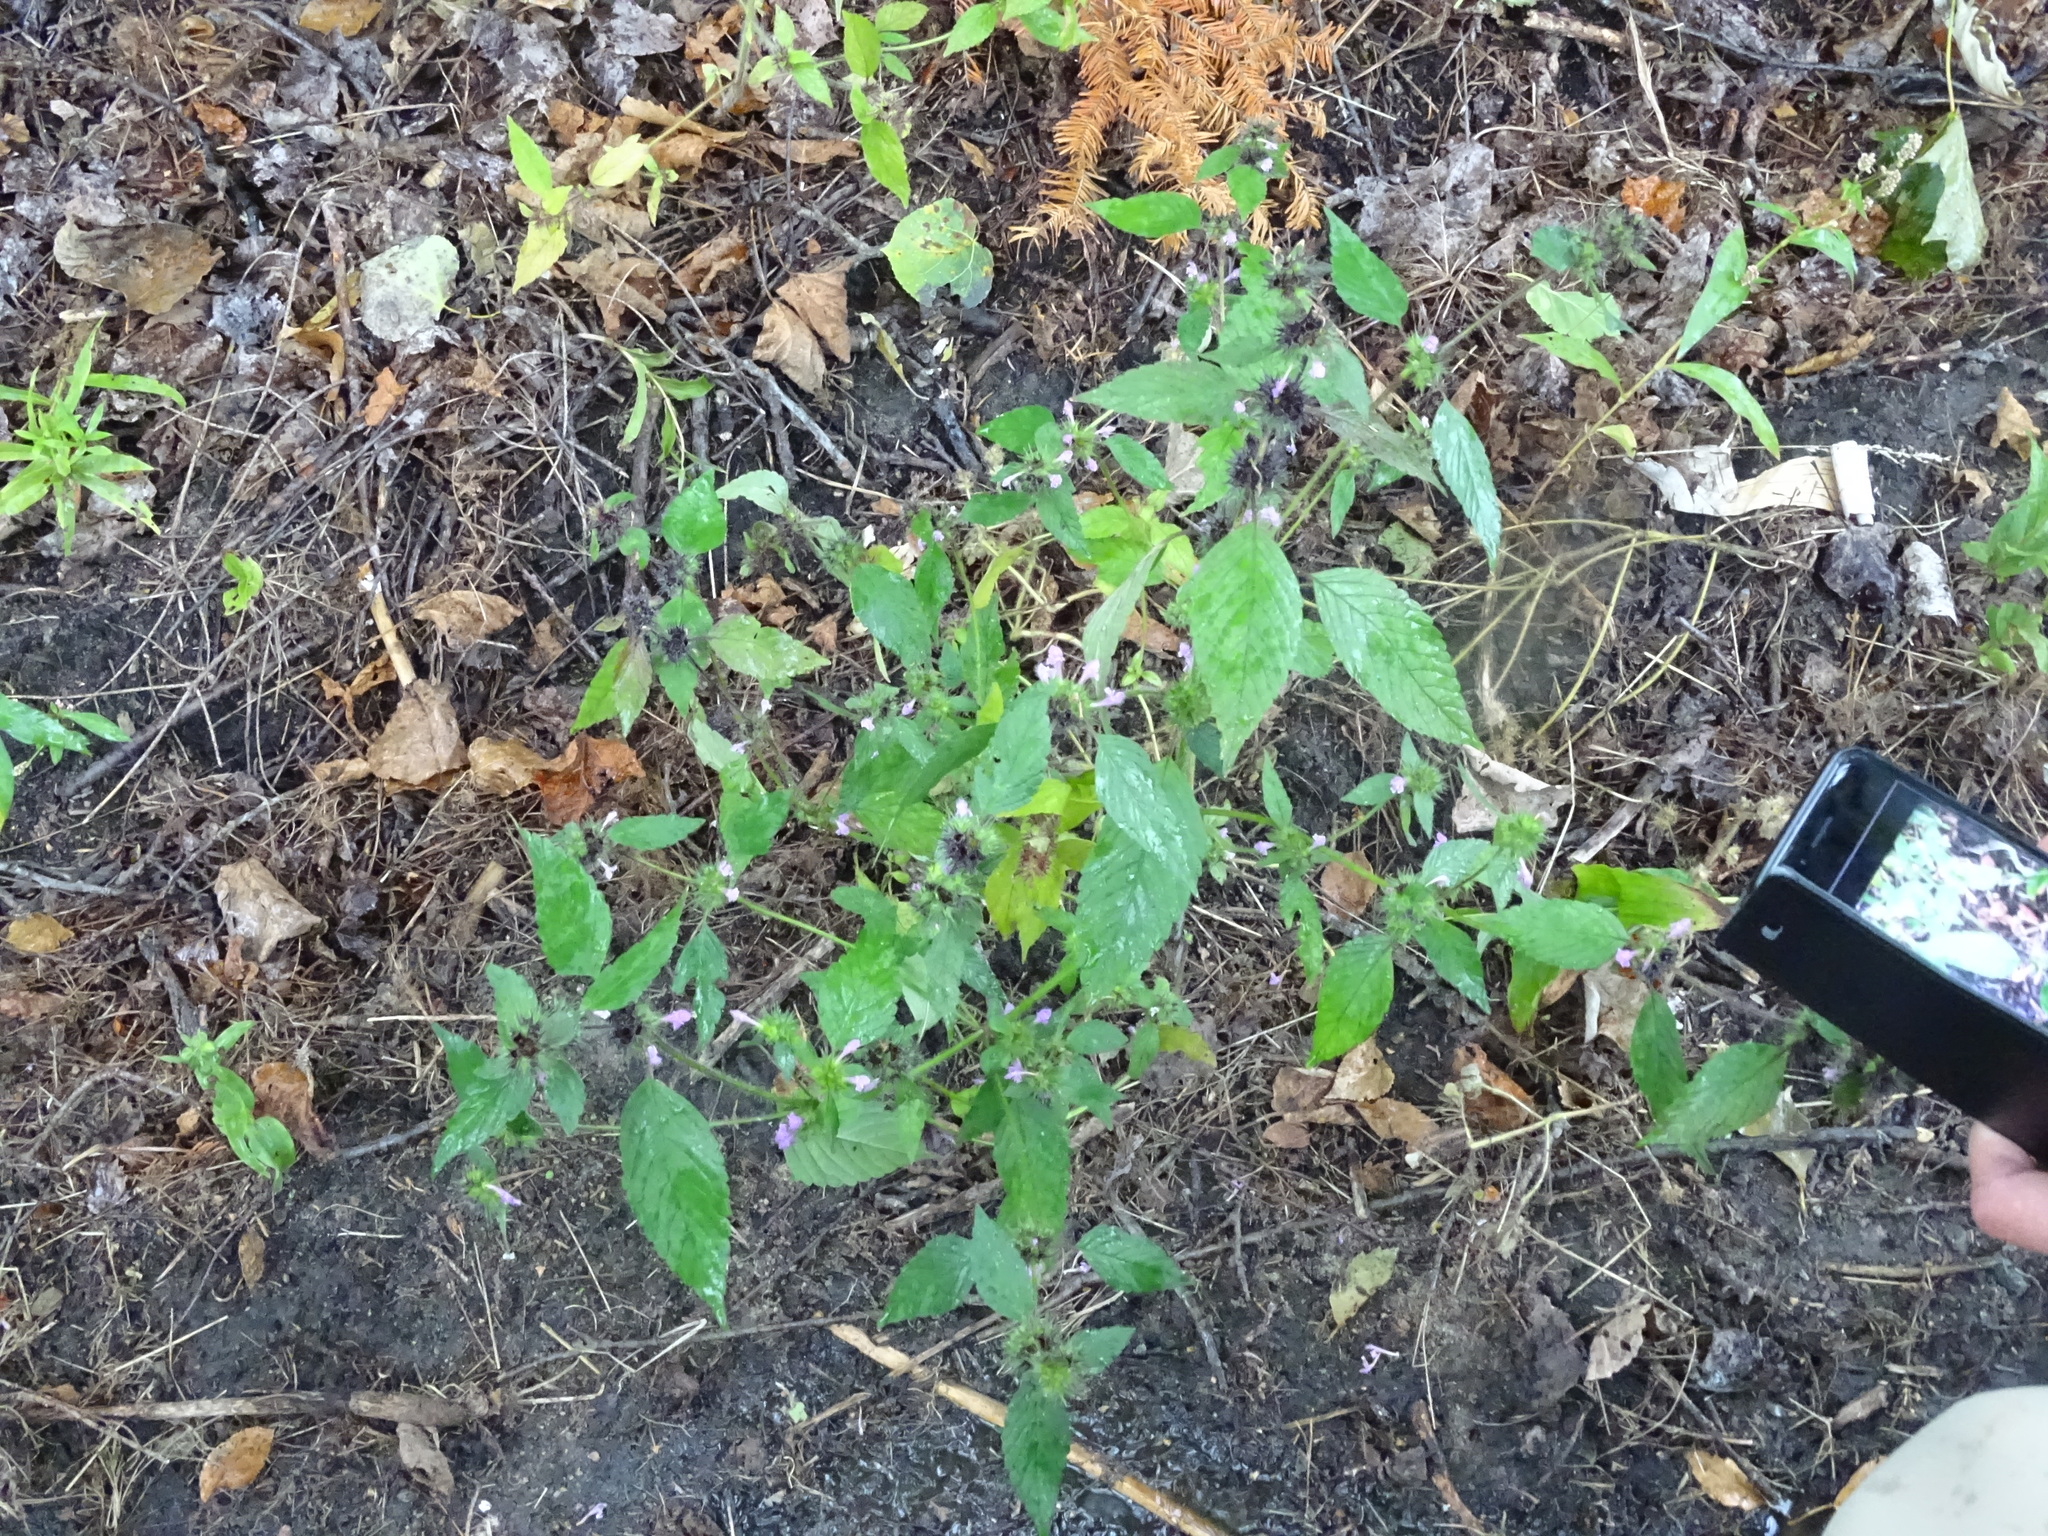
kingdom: Plantae
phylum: Tracheophyta
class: Magnoliopsida
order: Lamiales
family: Lamiaceae
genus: Galeopsis
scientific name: Galeopsis tetrahit
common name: Common hemp-nettle
